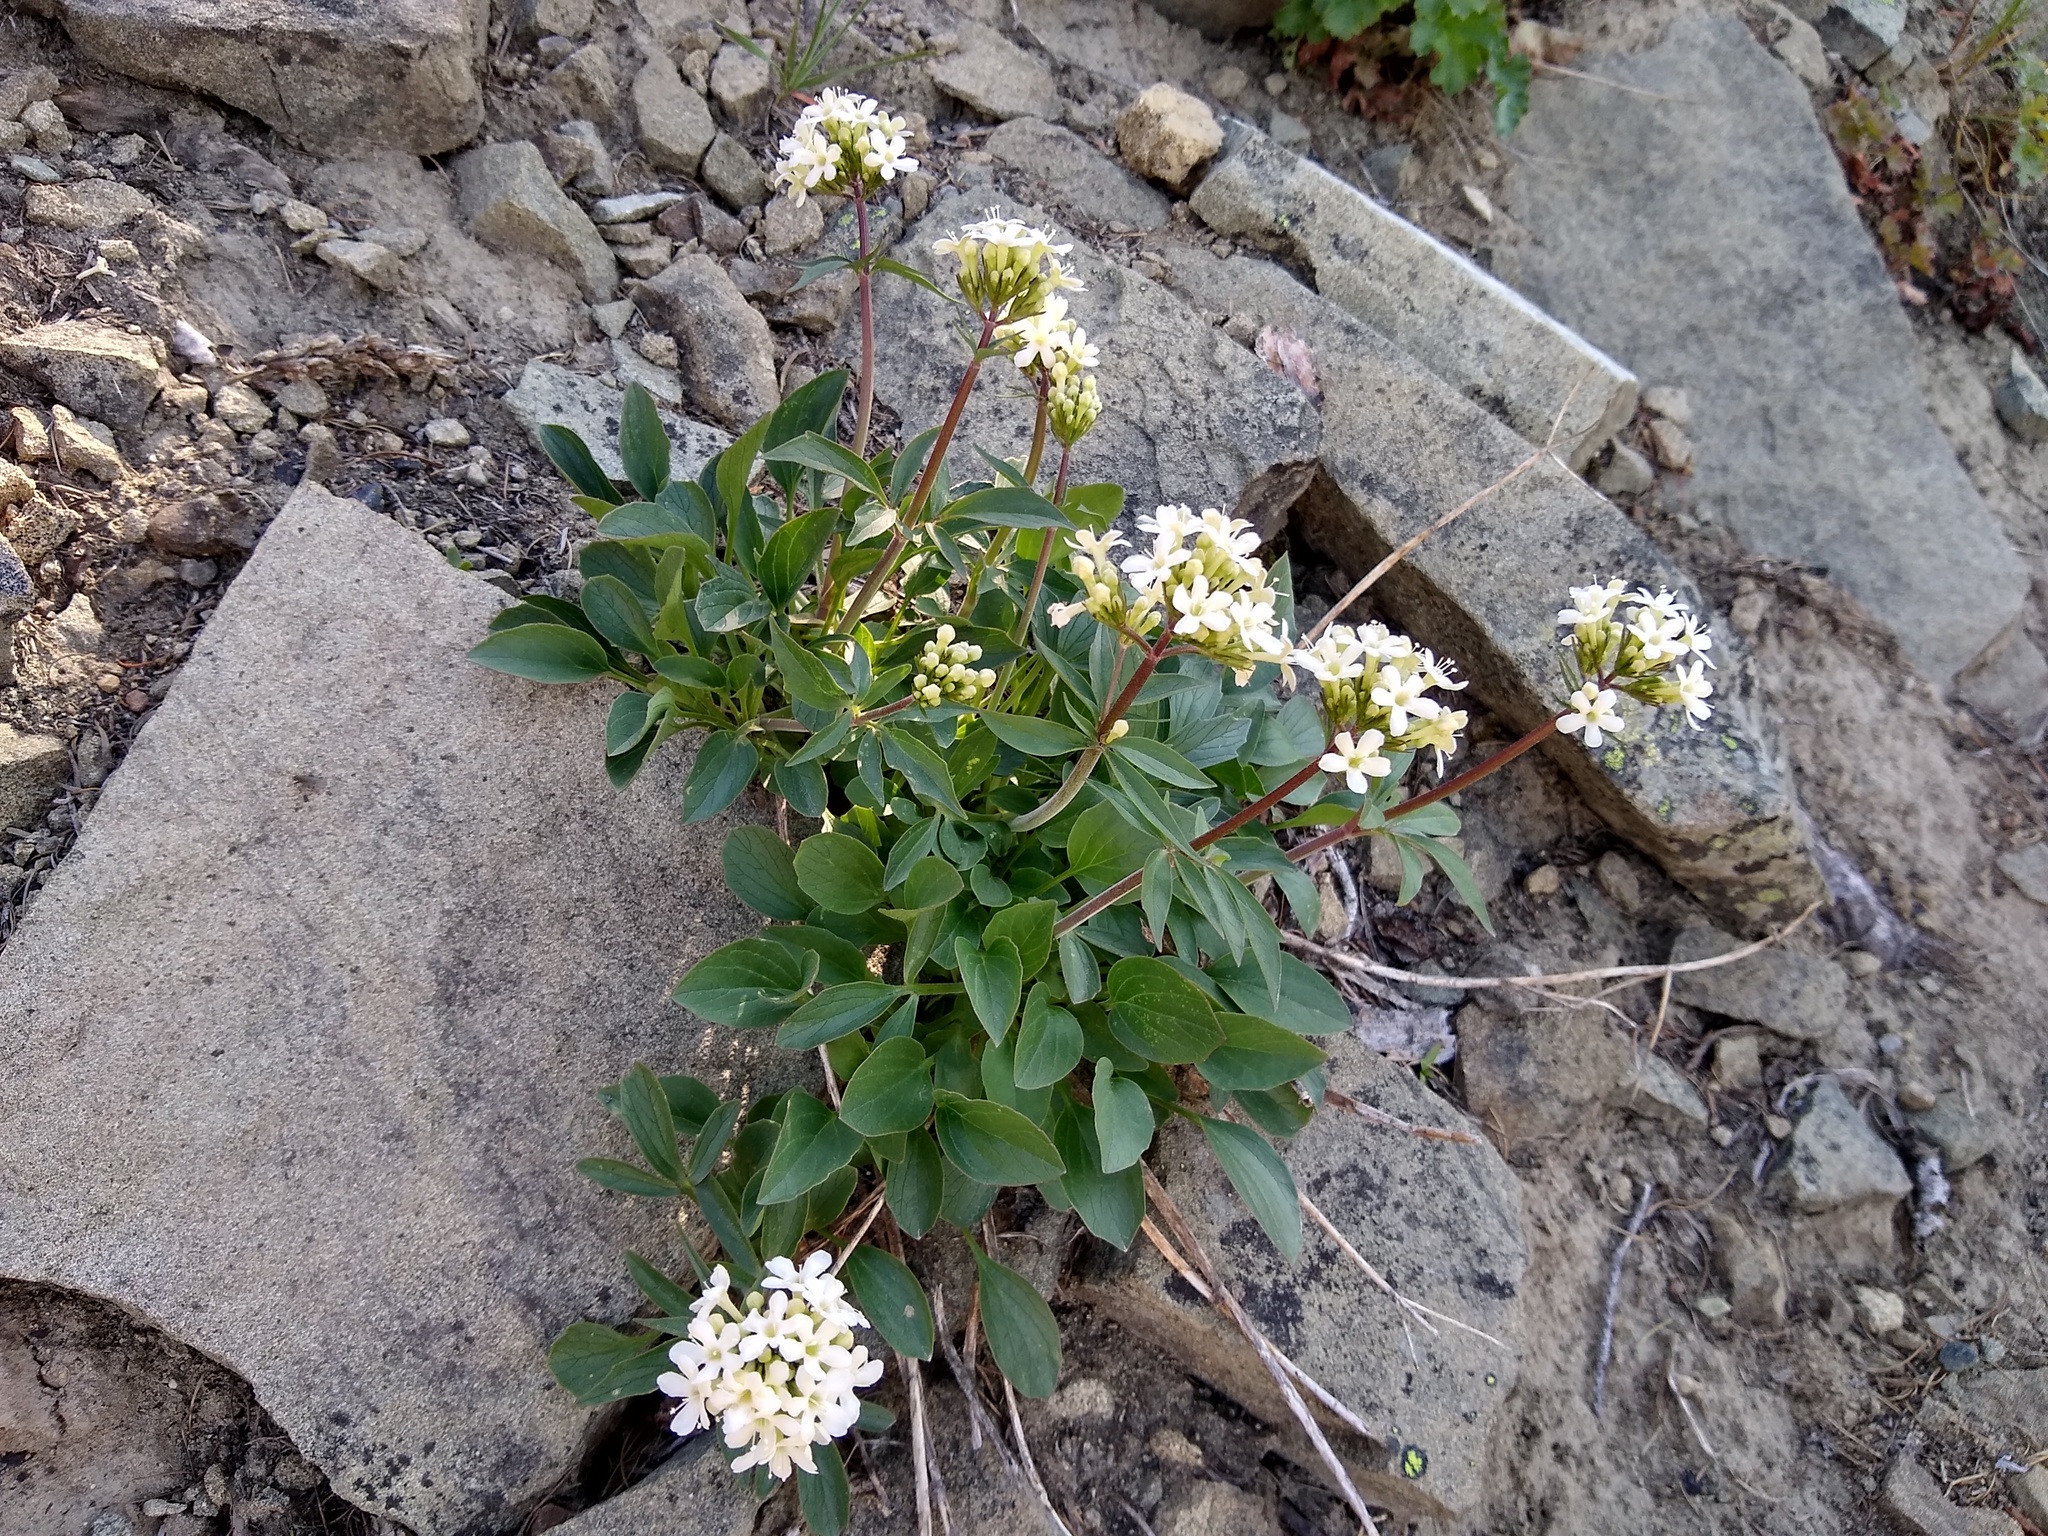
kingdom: Plantae
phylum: Tracheophyta
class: Magnoliopsida
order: Dipsacales
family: Caprifoliaceae
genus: Valeriana
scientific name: Valeriana columbiana
